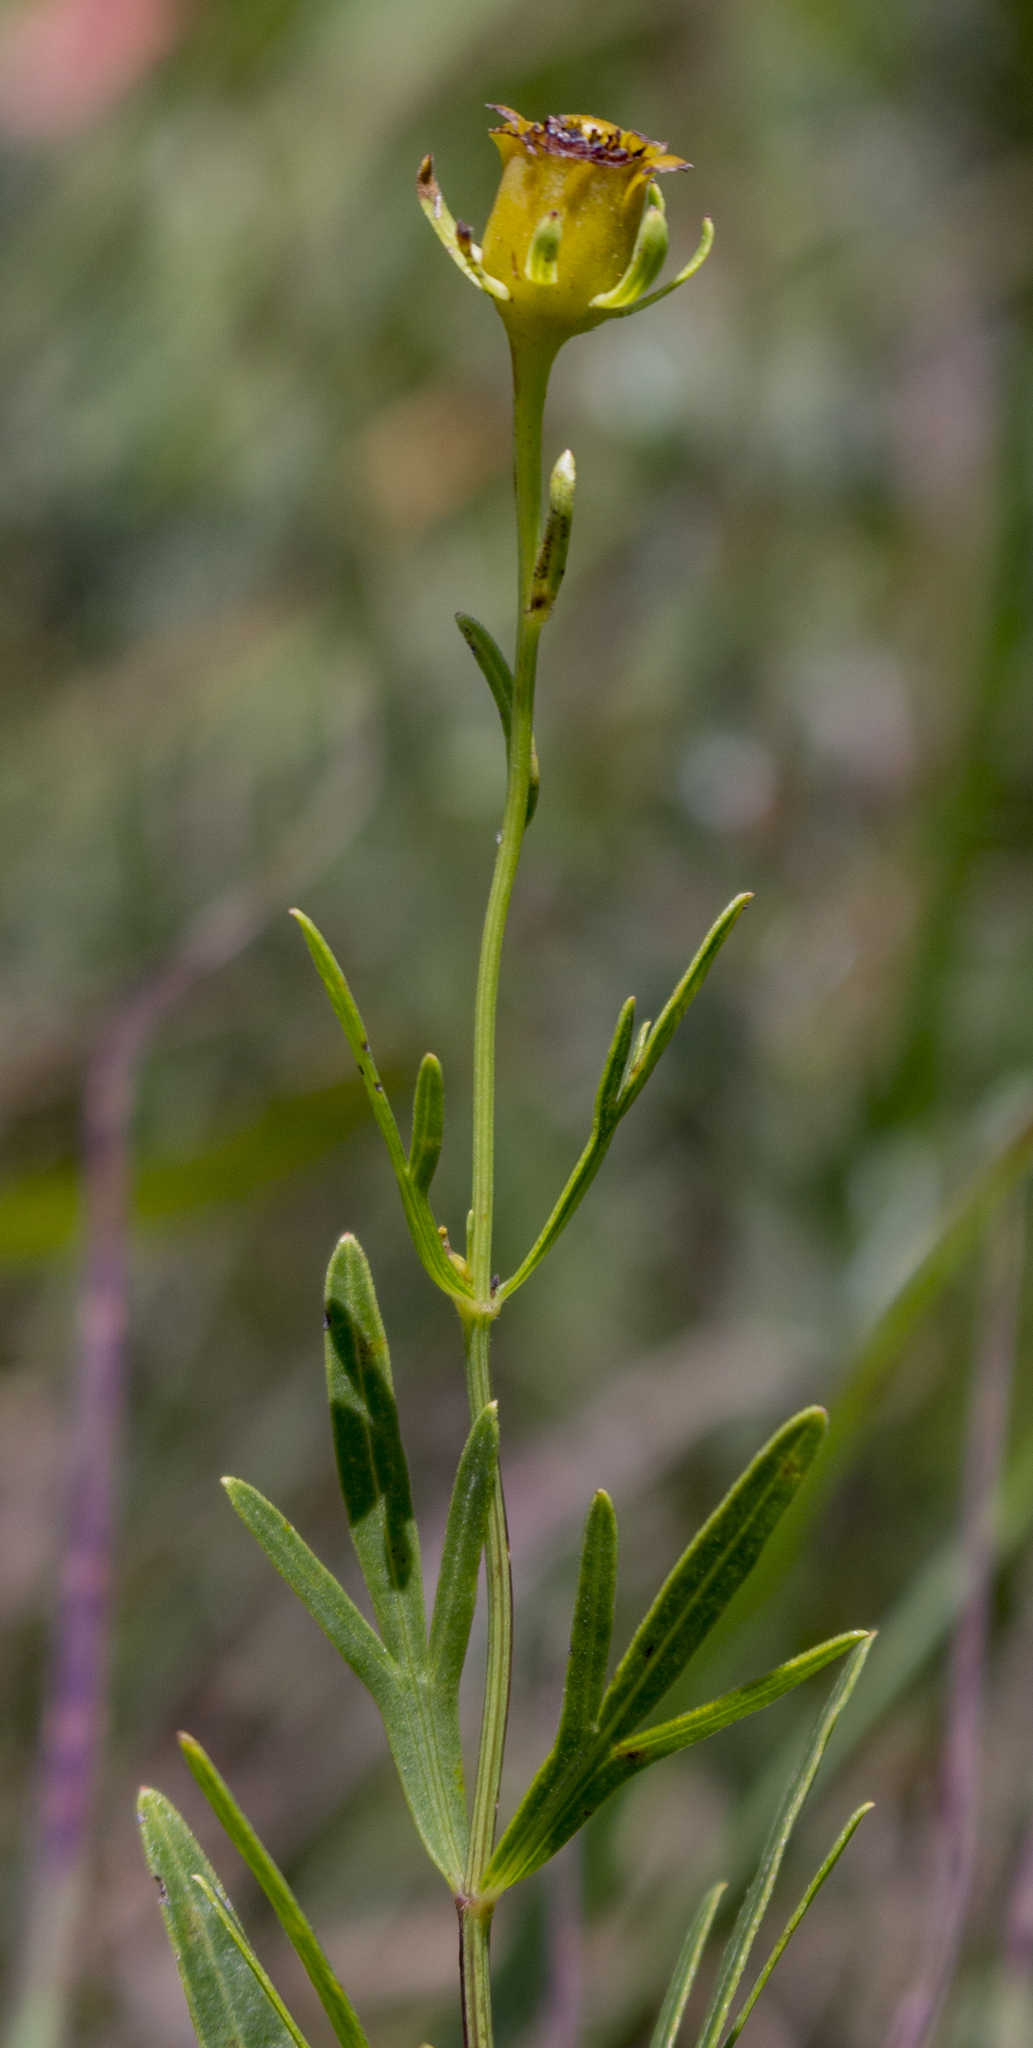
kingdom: Plantae
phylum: Tracheophyta
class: Magnoliopsida
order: Asterales
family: Asteraceae
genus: Coreopsis
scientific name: Coreopsis palmata
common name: Prairie coreopsis
